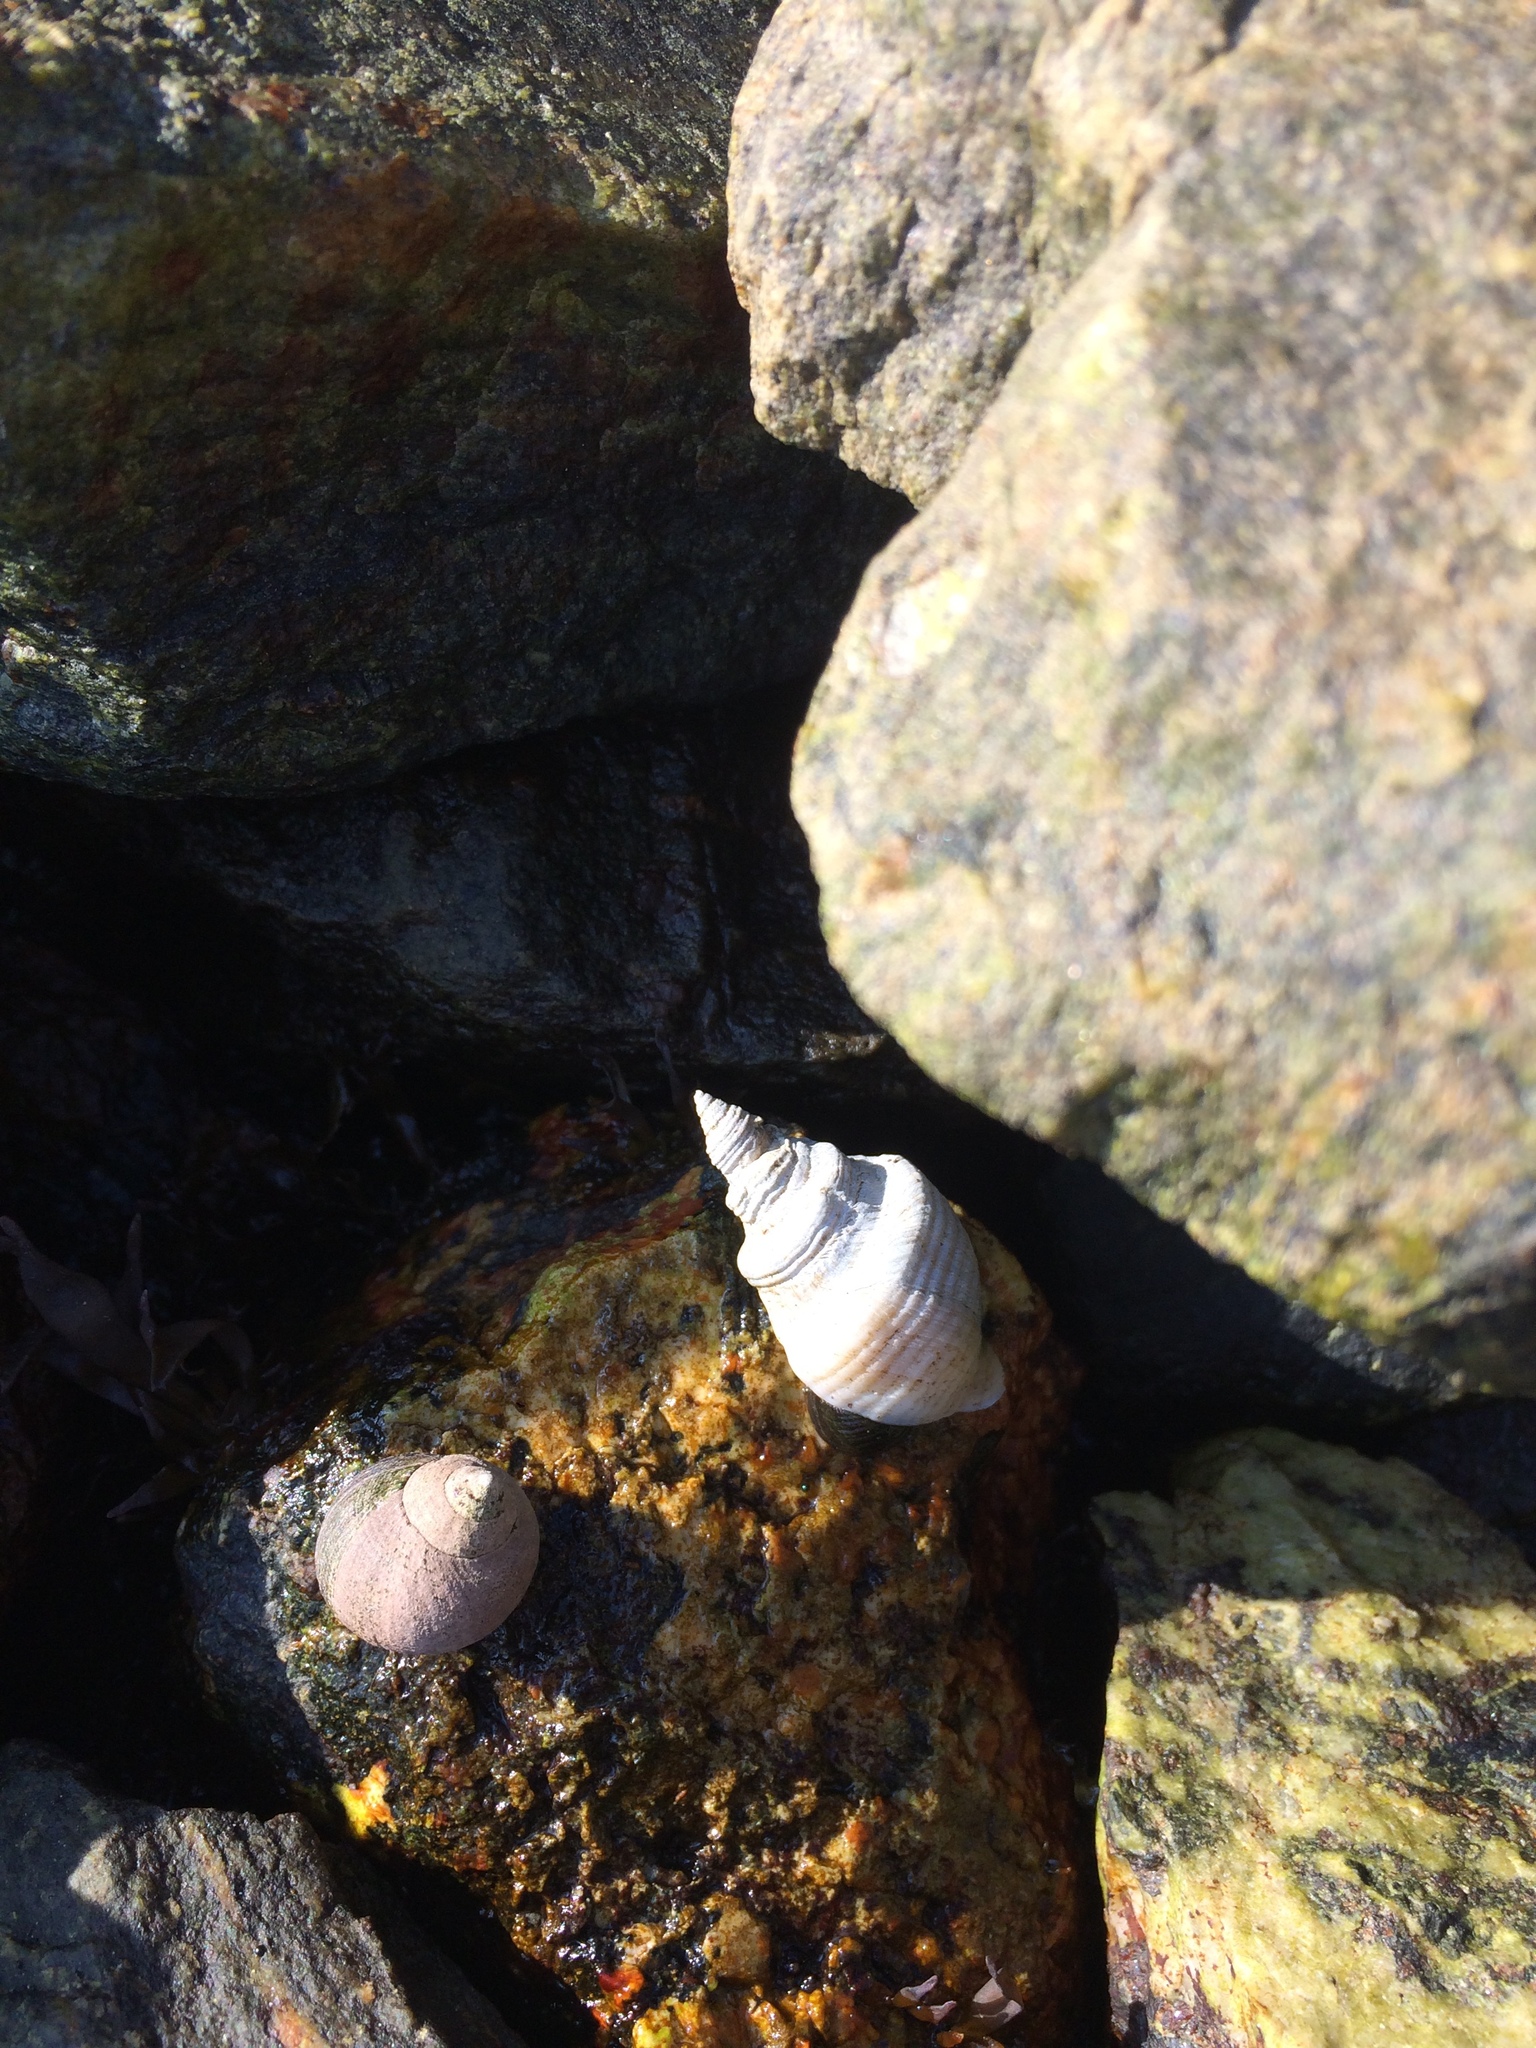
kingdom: Animalia
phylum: Mollusca
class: Gastropoda
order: Neogastropoda
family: Muricidae
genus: Nucella
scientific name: Nucella lapillus
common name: Dog whelk
